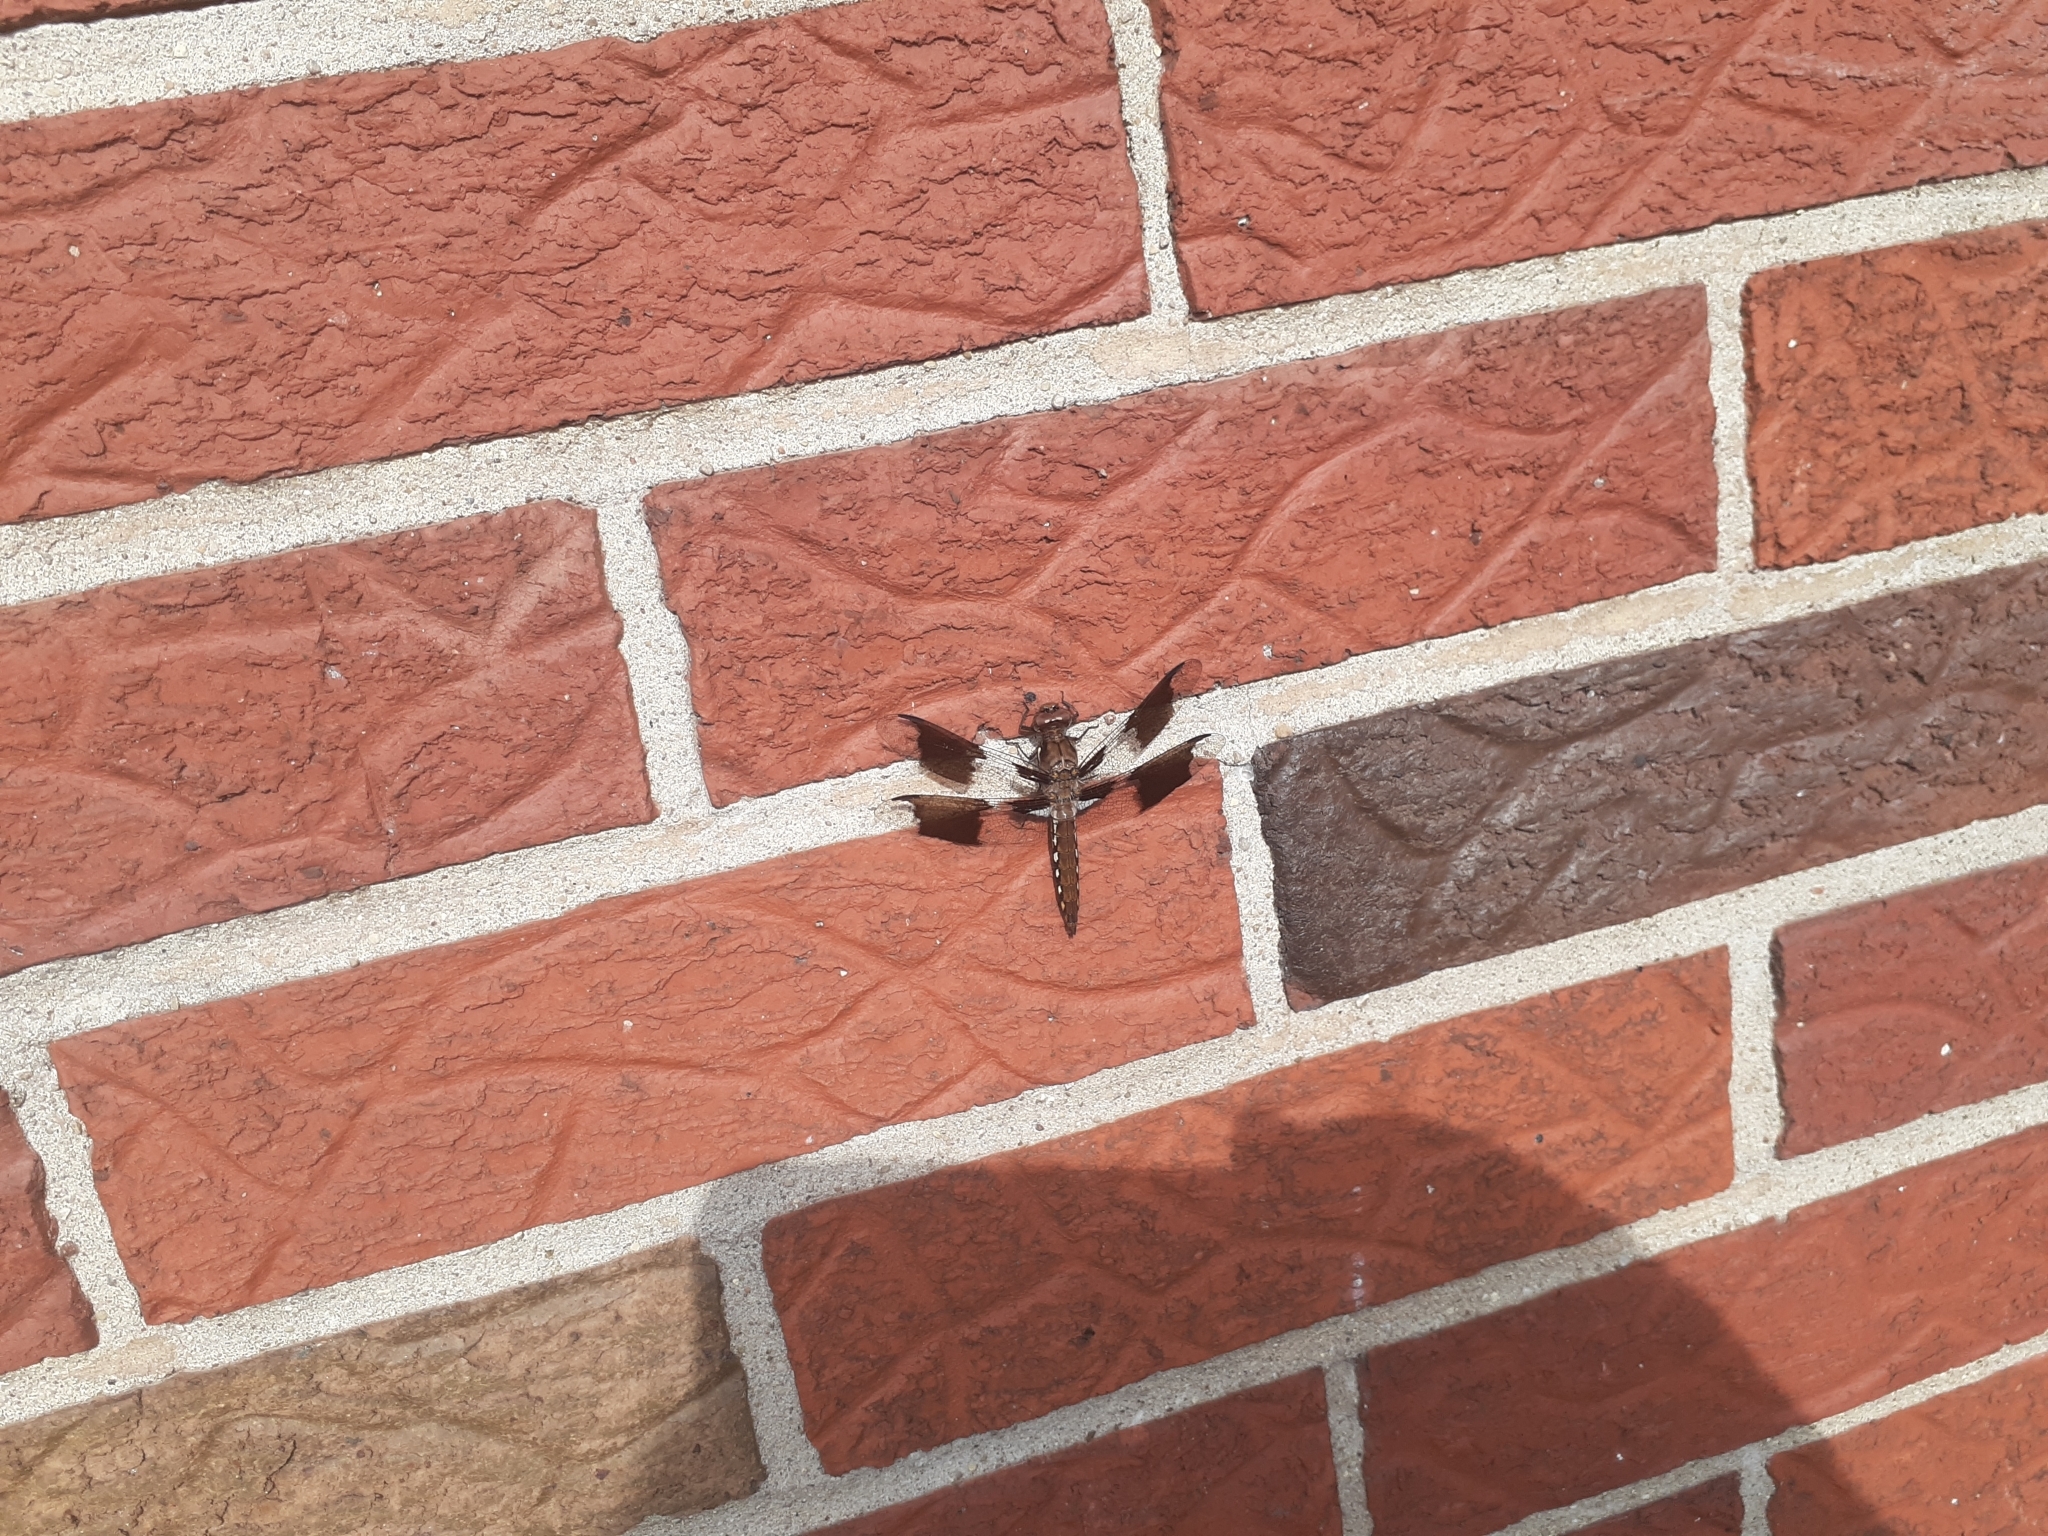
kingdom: Animalia
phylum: Arthropoda
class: Insecta
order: Odonata
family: Libellulidae
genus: Plathemis
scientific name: Plathemis lydia
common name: Common whitetail
